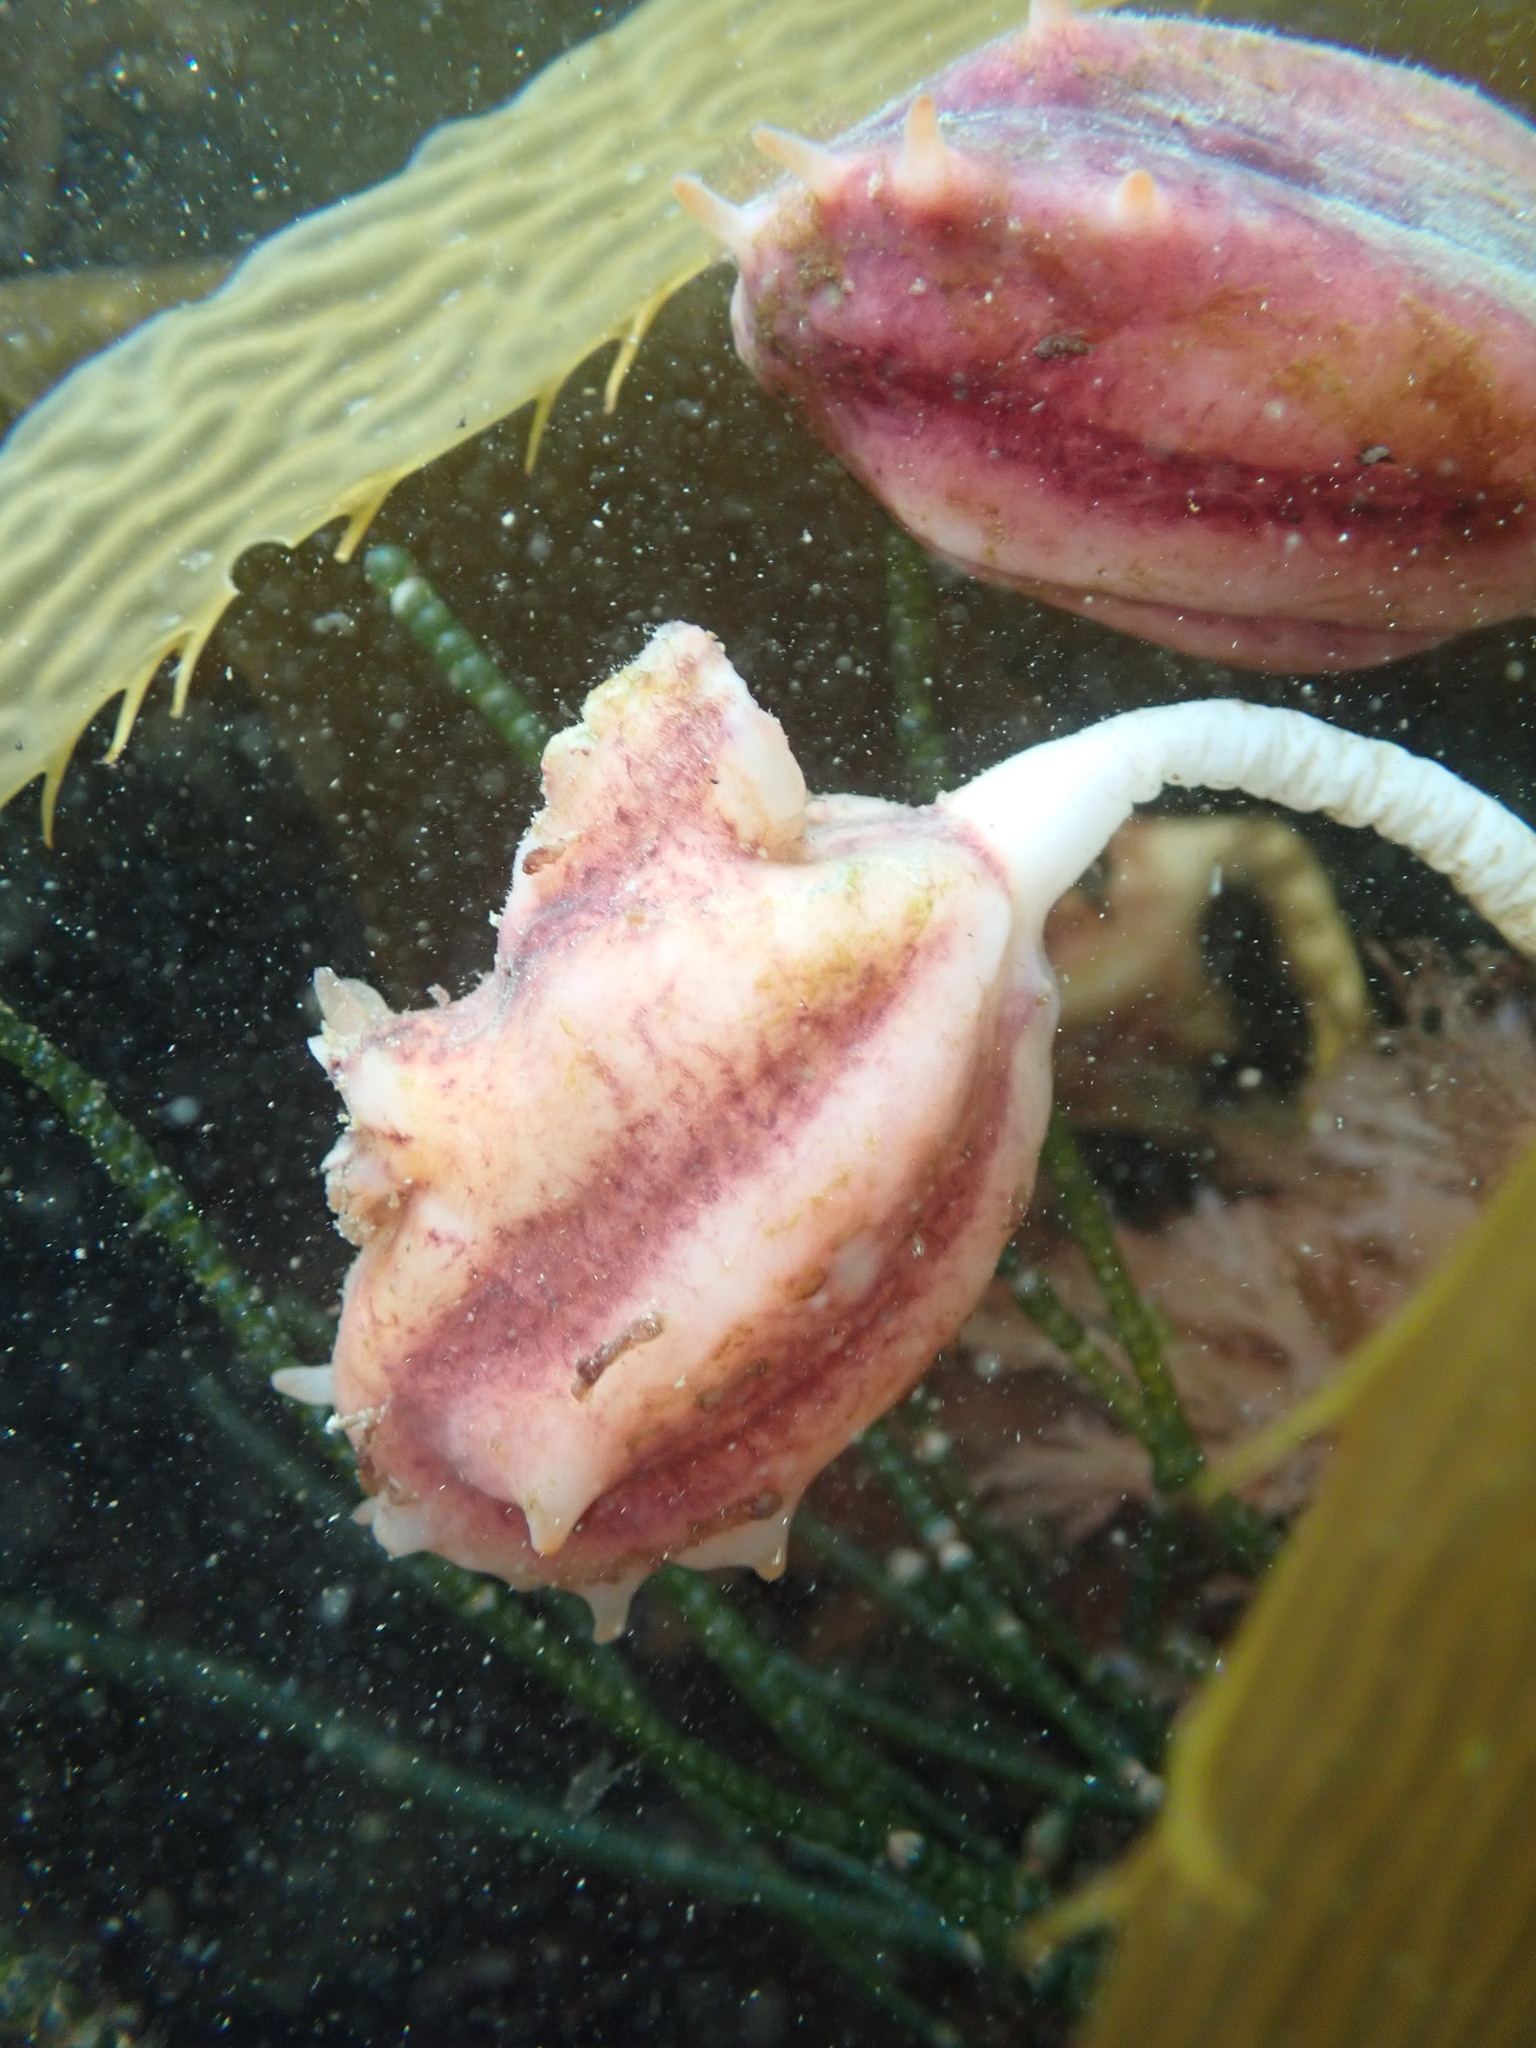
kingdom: Animalia
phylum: Chordata
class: Ascidiacea
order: Stolidobranchia
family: Pyuridae
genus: Pyura
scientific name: Pyura pachydermatina
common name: Sea tulip
